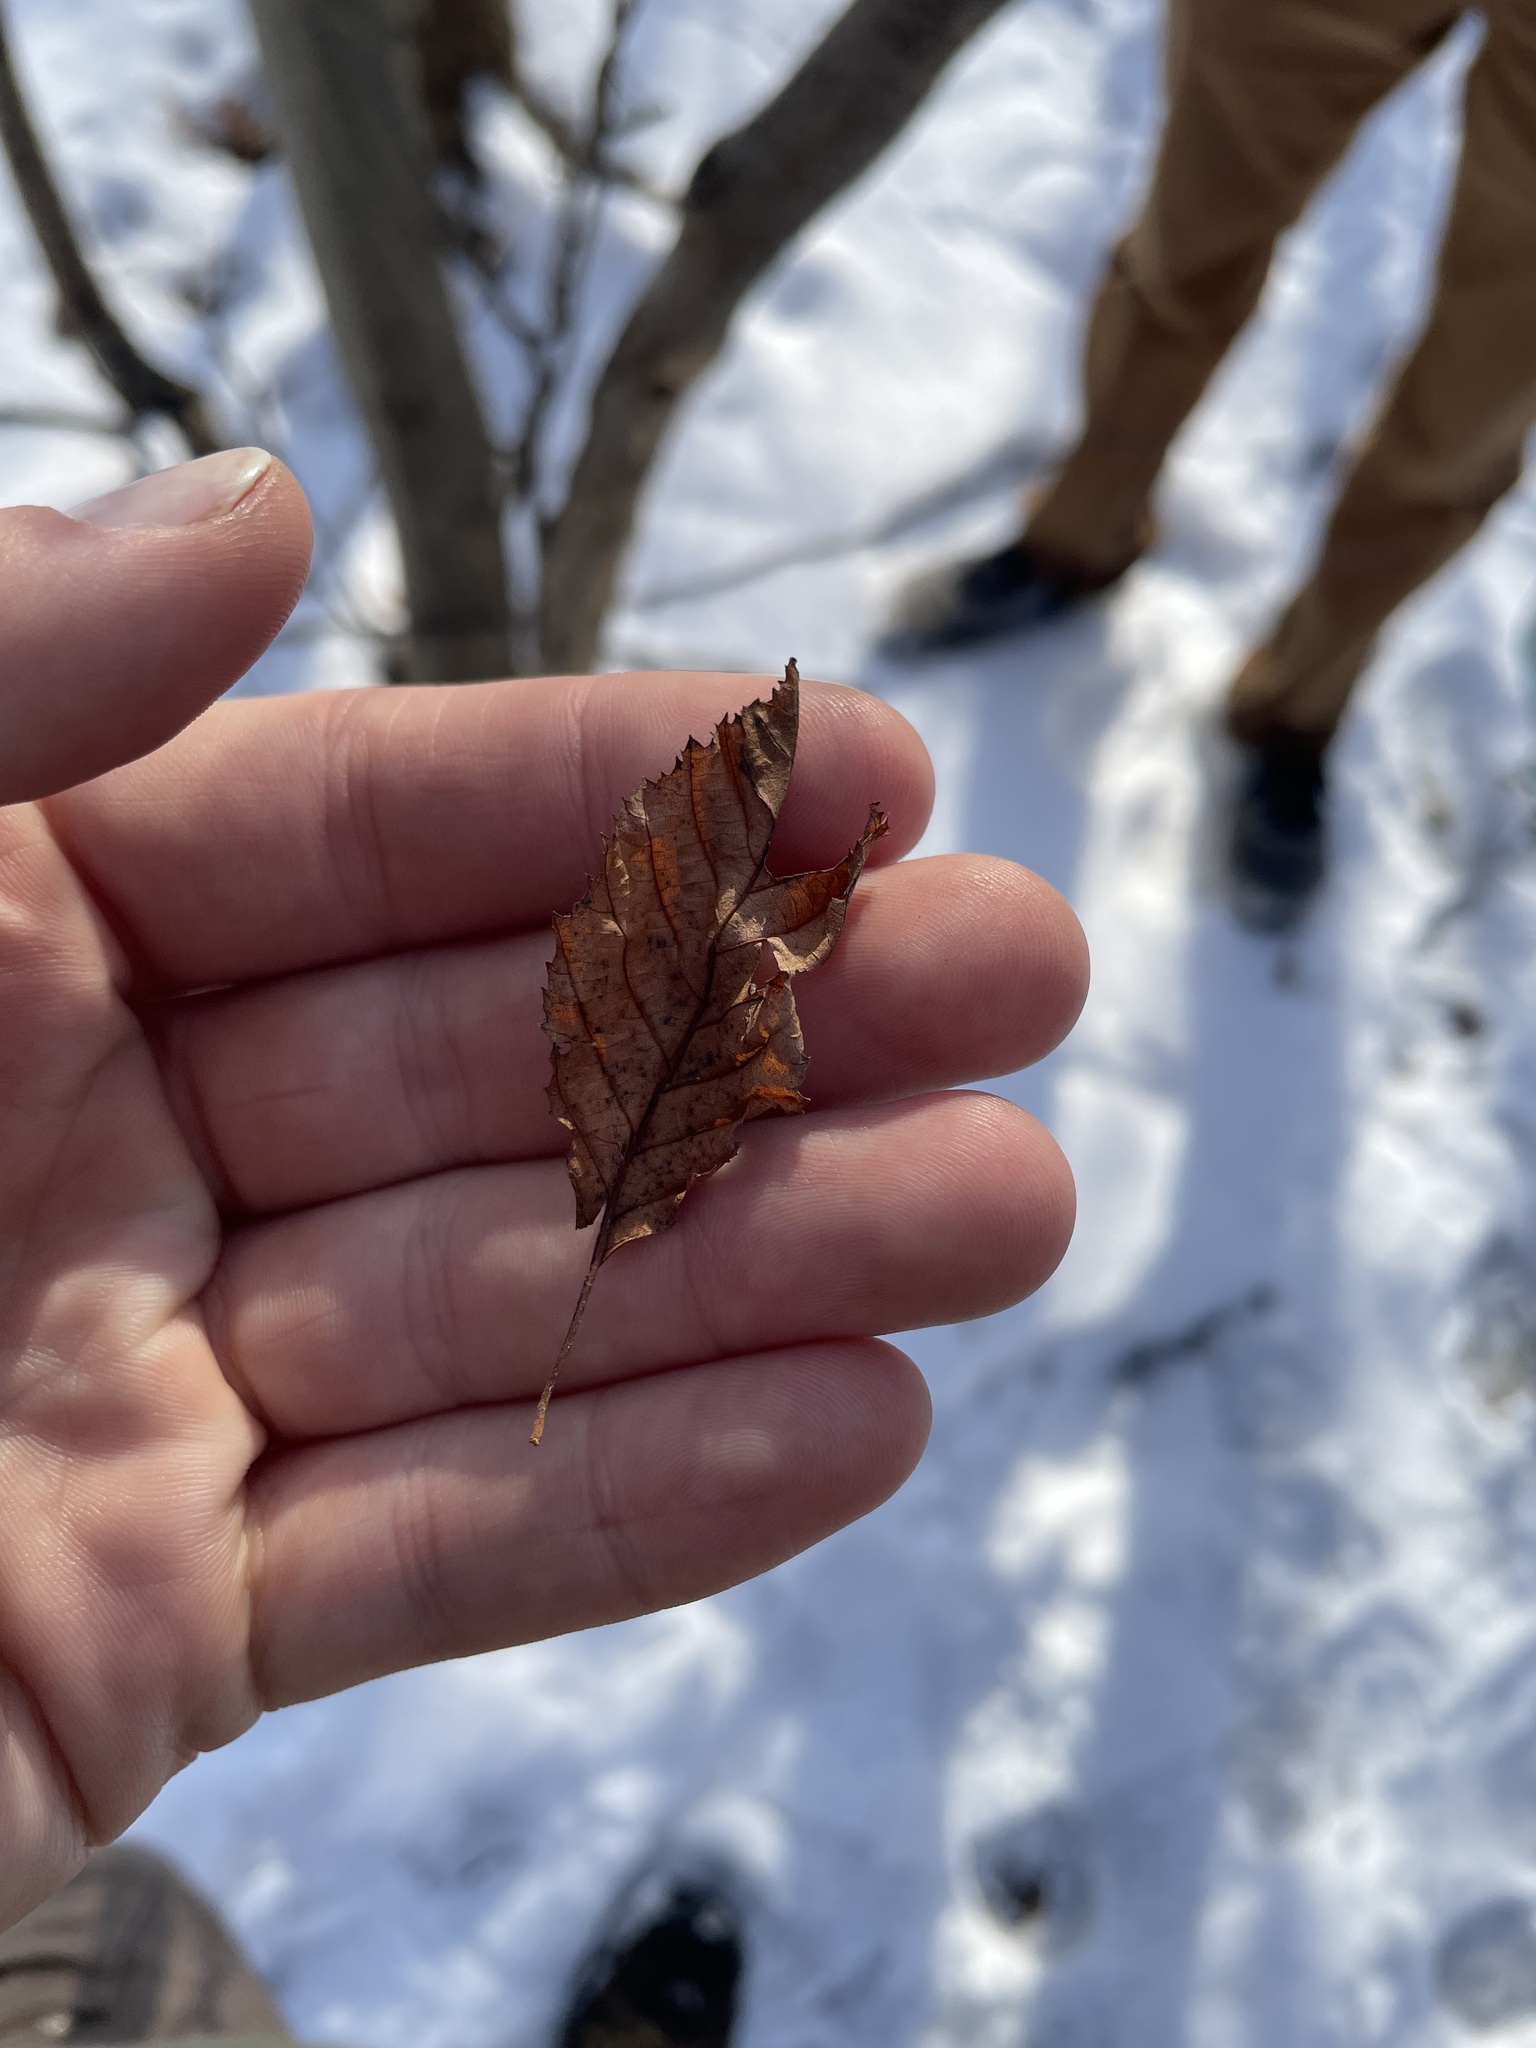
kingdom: Plantae
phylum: Tracheophyta
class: Magnoliopsida
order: Fagales
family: Betulaceae
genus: Alnus
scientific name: Alnus incana
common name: Grey alder
